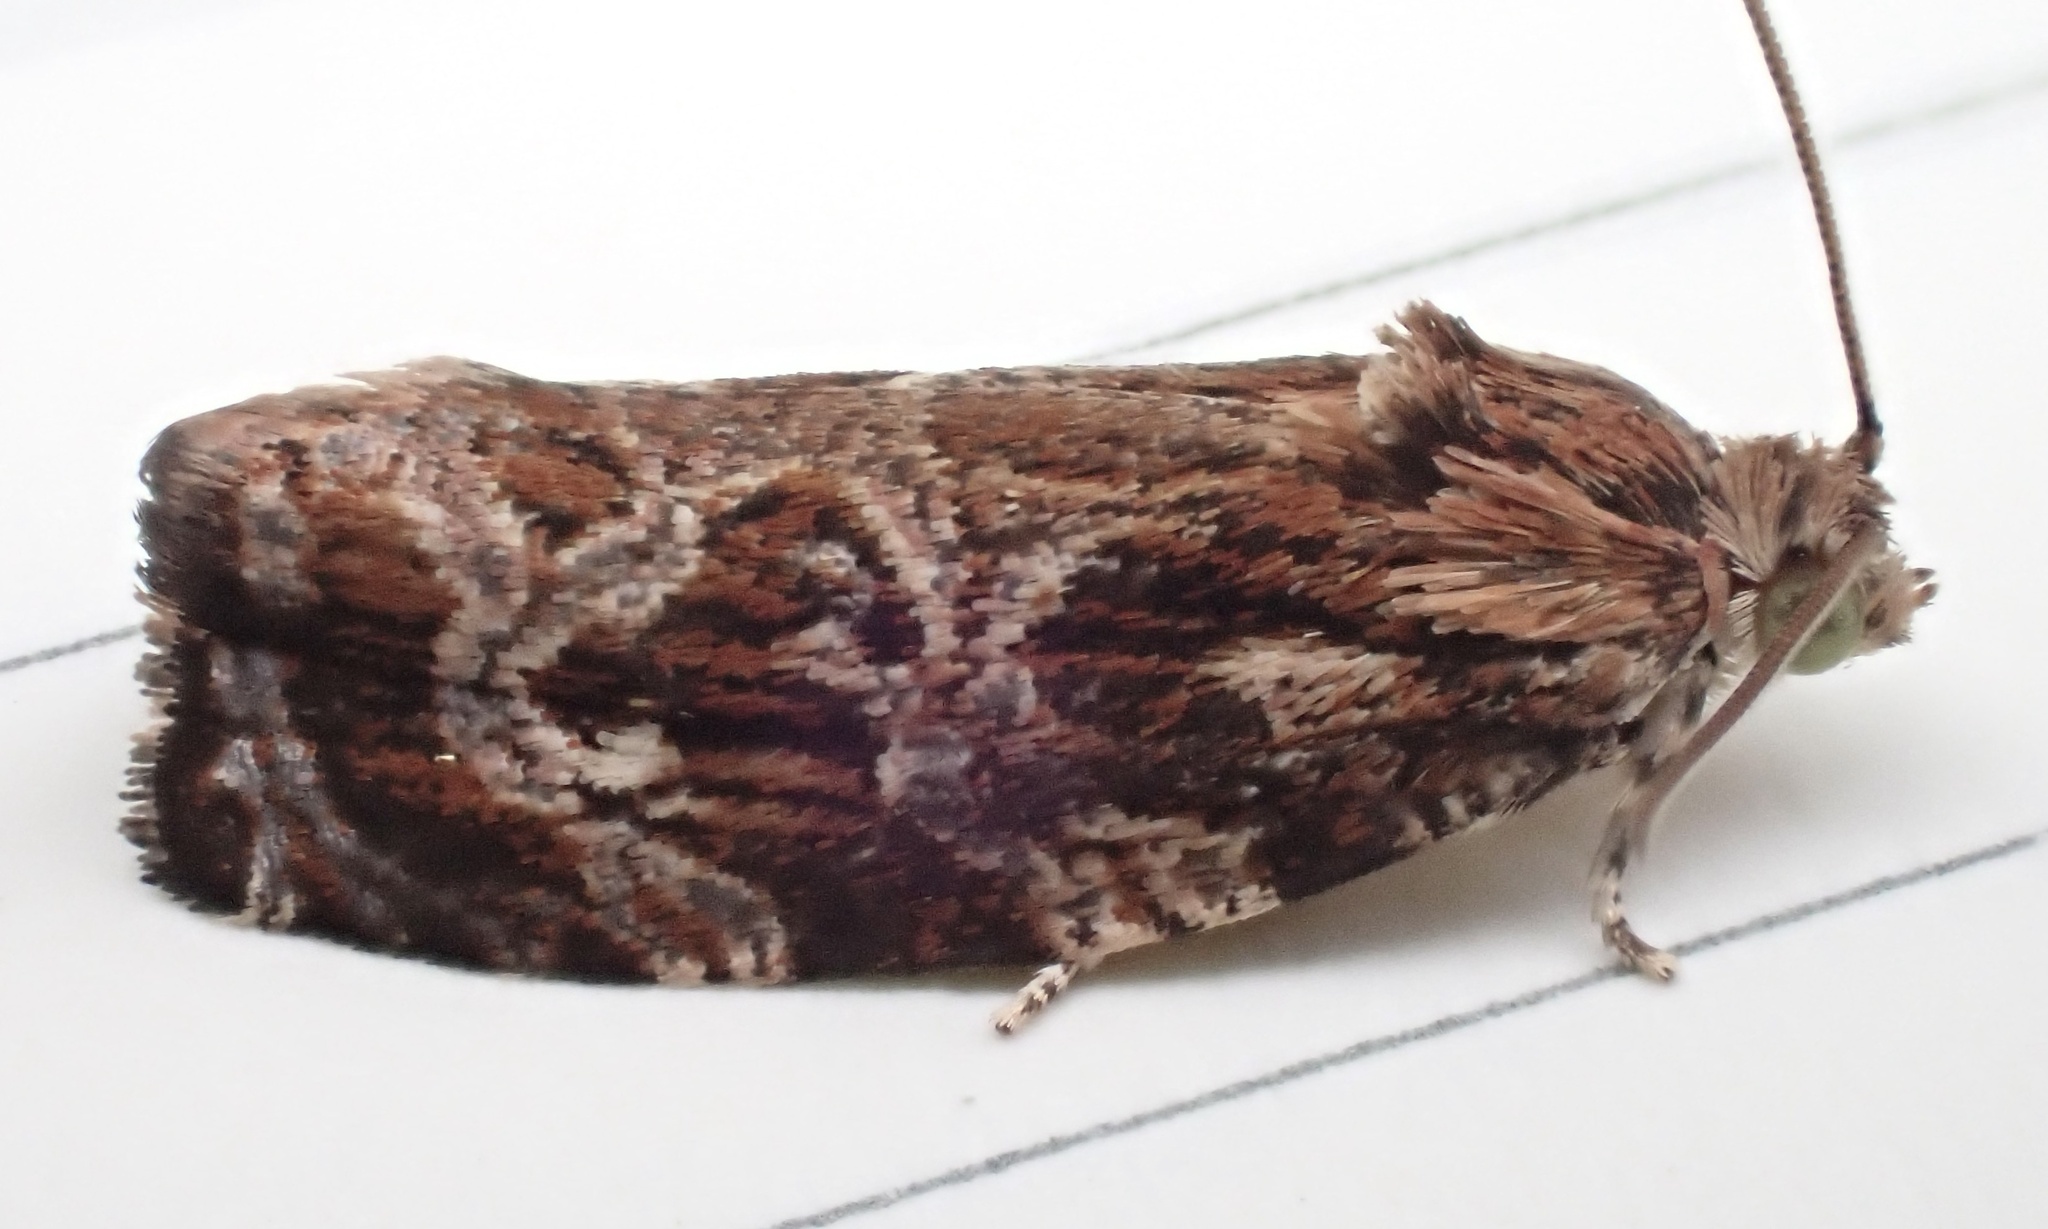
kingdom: Animalia
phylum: Arthropoda
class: Insecta
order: Lepidoptera
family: Tortricidae
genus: Phaecasiophora
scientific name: Phaecasiophora confixana
